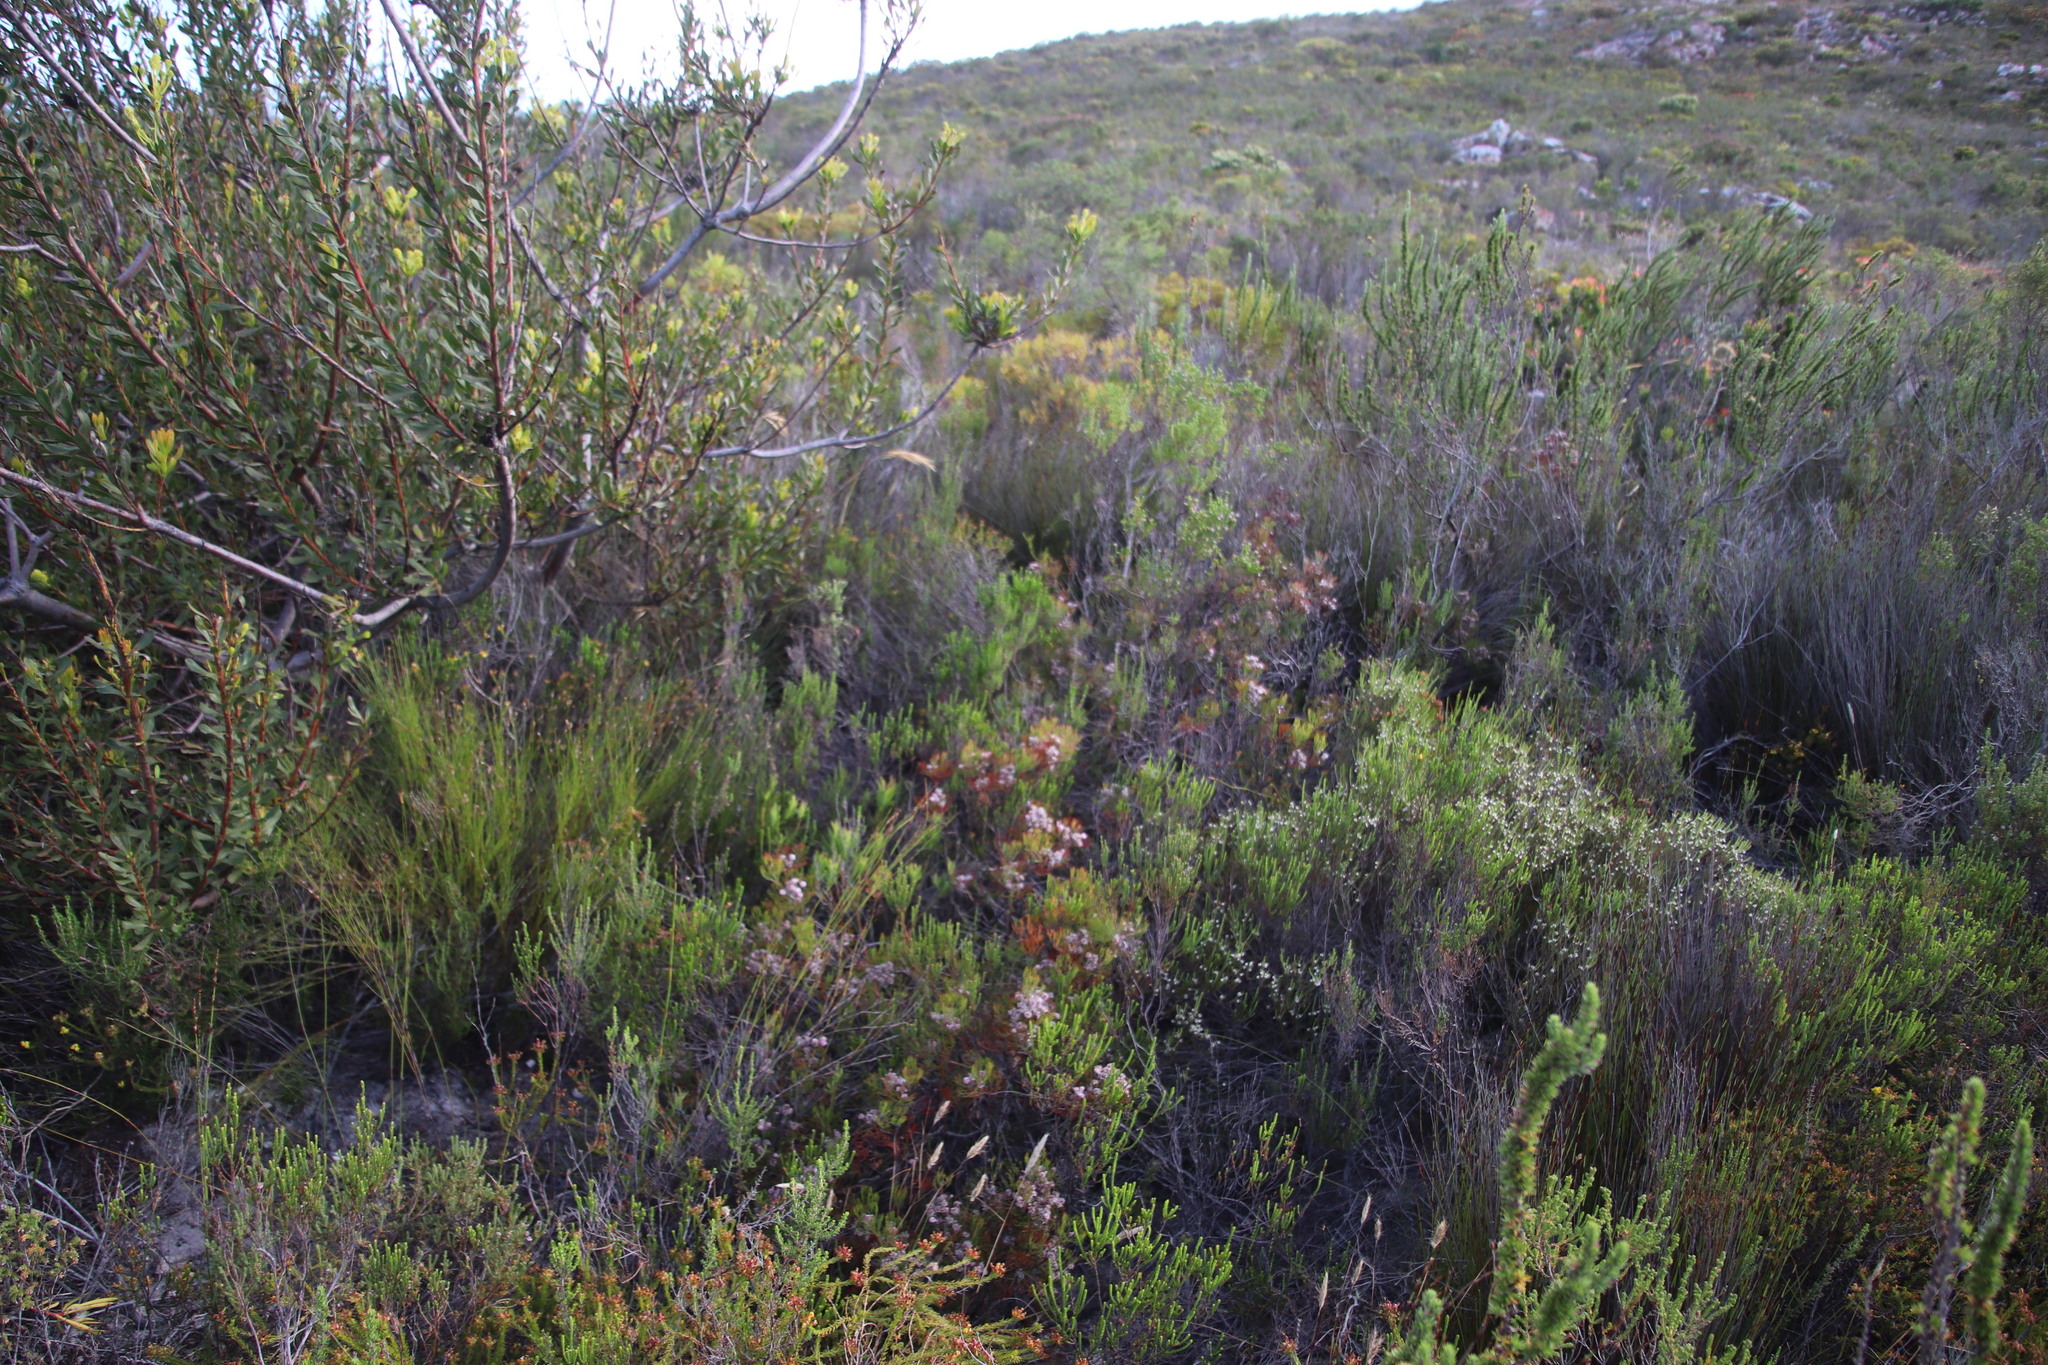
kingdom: Plantae
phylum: Tracheophyta
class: Magnoliopsida
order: Proteales
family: Proteaceae
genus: Serruria
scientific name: Serruria fasciflora
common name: Common pin spiderhead
